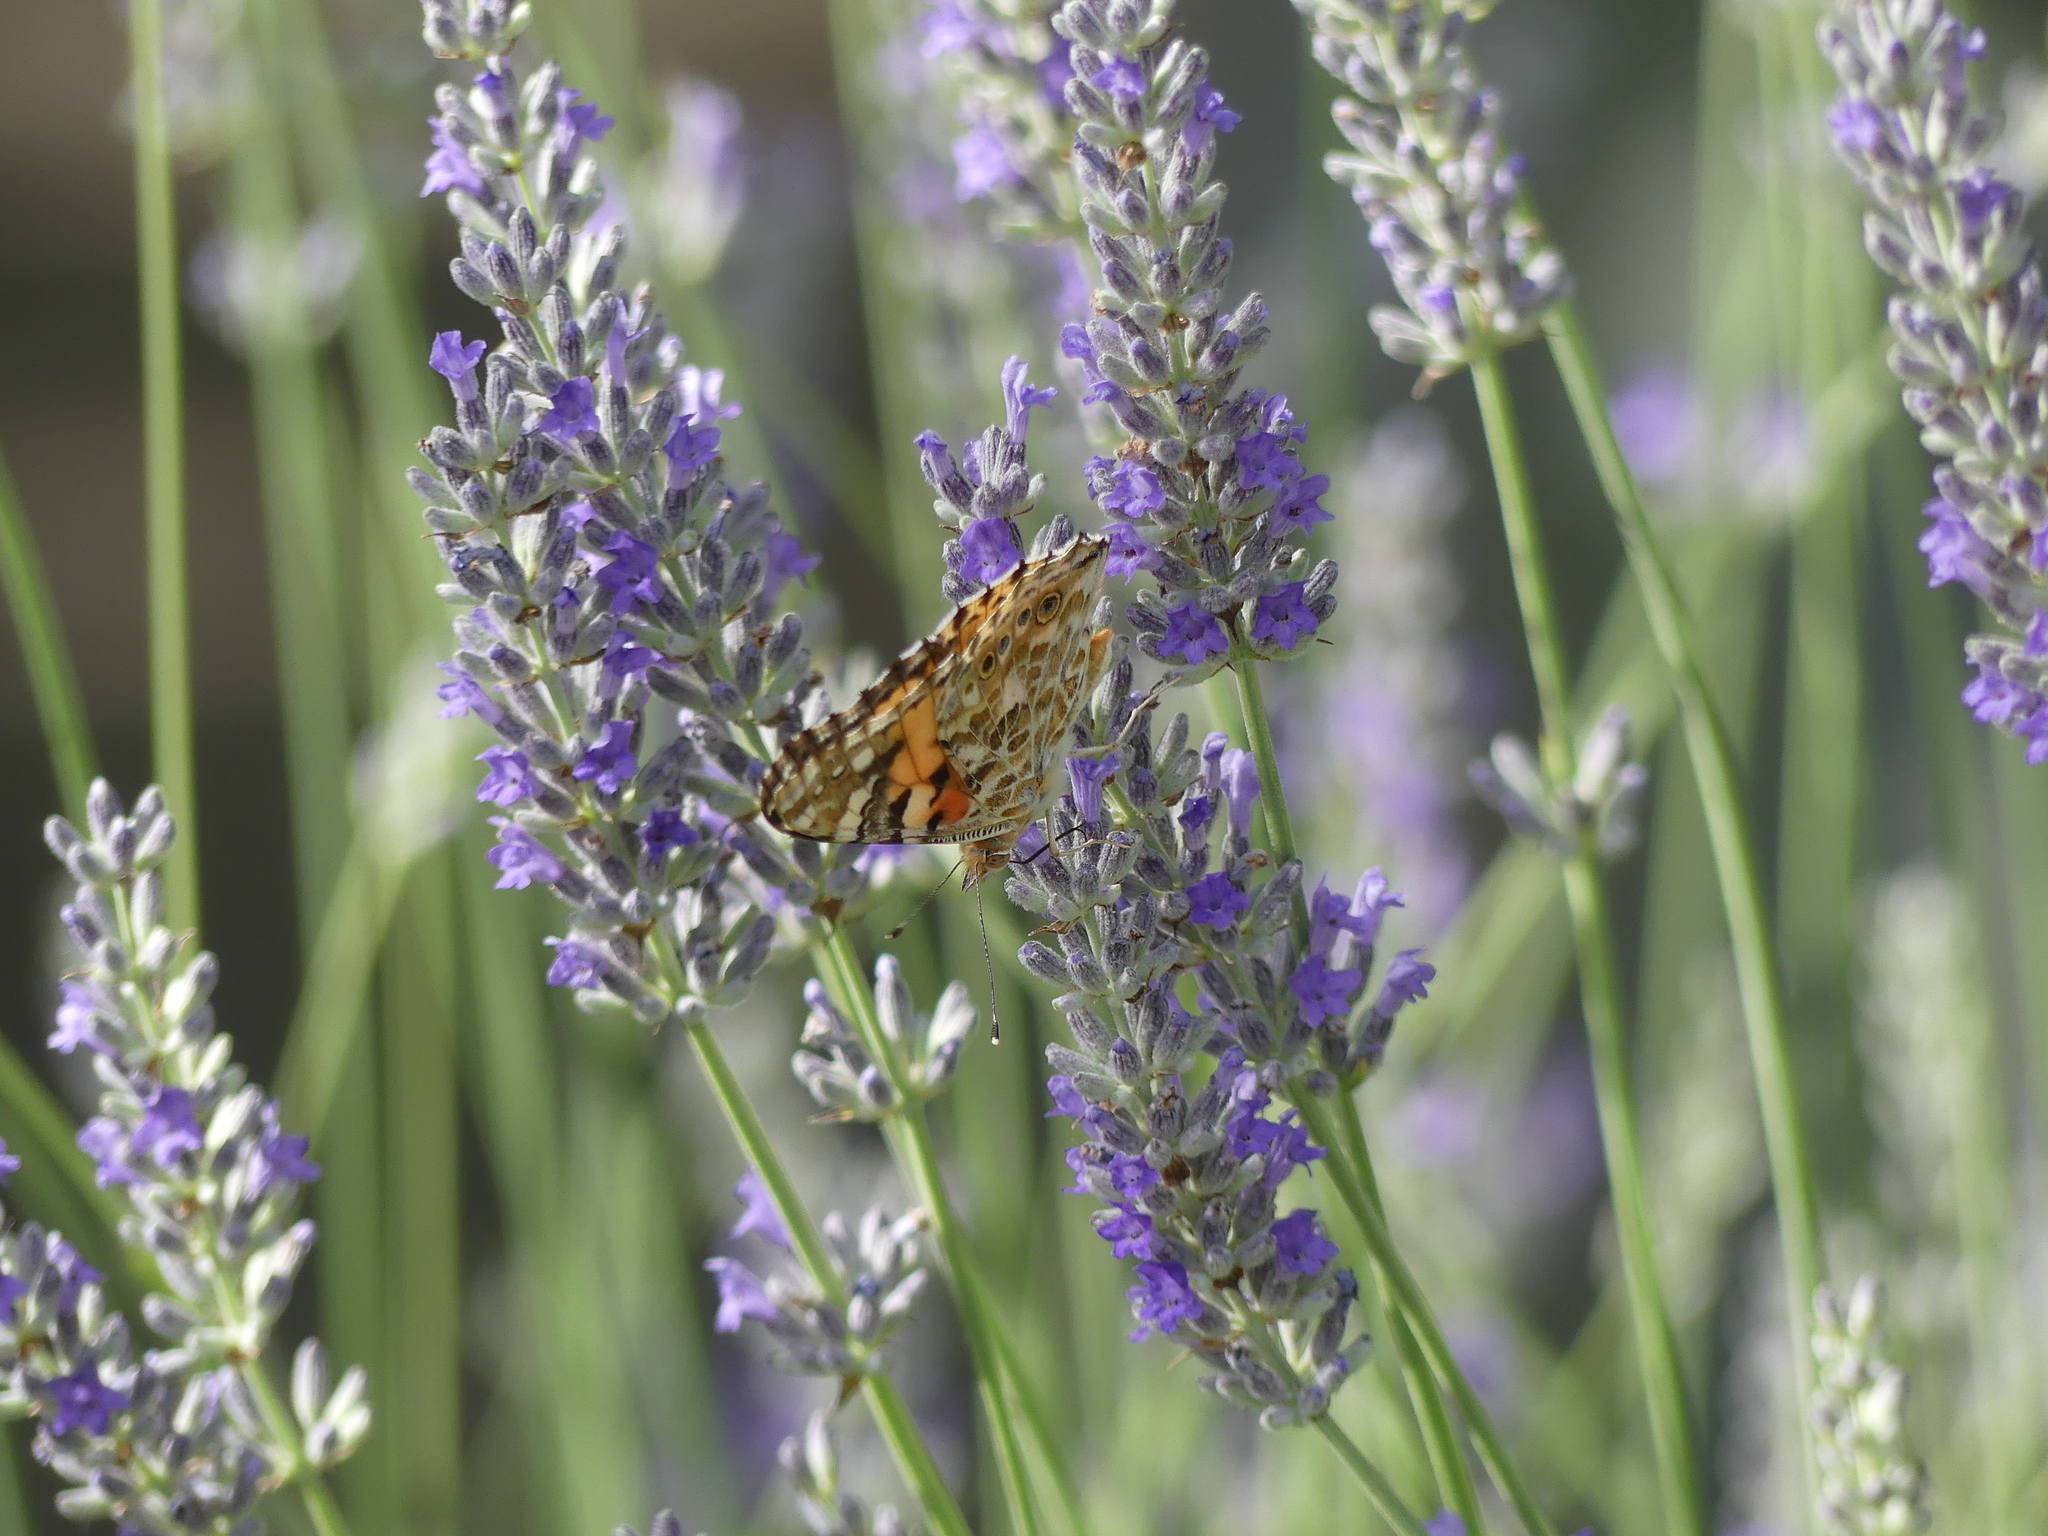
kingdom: Animalia
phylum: Arthropoda
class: Insecta
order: Lepidoptera
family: Nymphalidae
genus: Vanessa
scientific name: Vanessa cardui
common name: Painted lady
